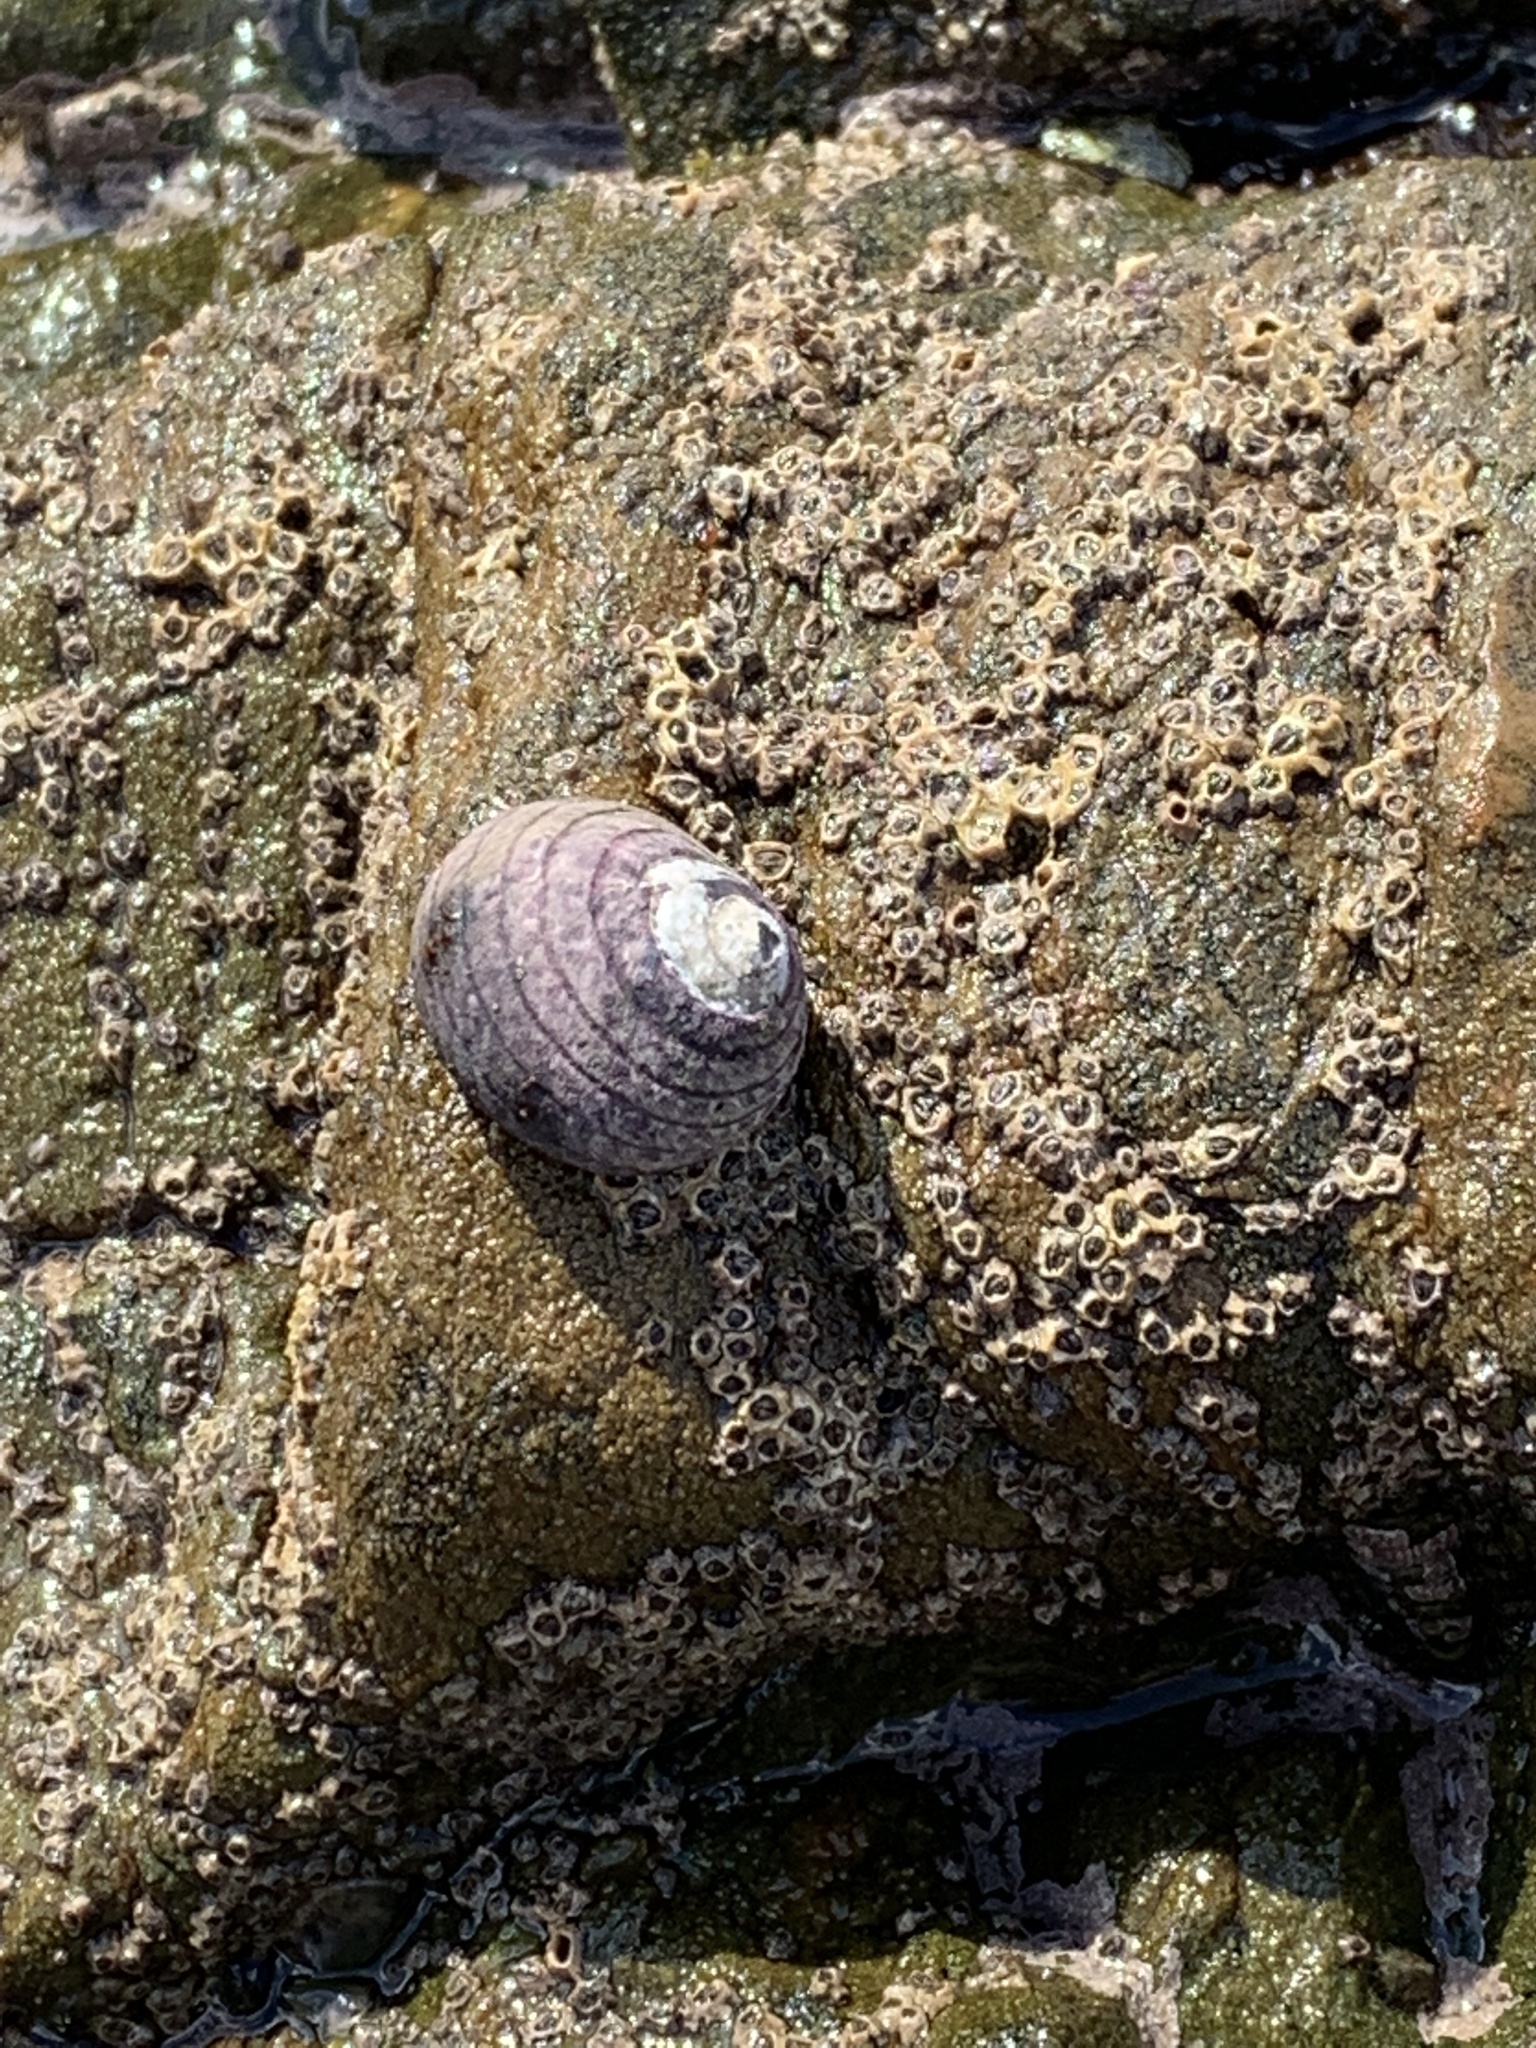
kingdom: Animalia
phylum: Mollusca
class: Gastropoda
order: Trochida
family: Trochidae
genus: Diloma
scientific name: Diloma aethiops
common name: Scorched monodont
